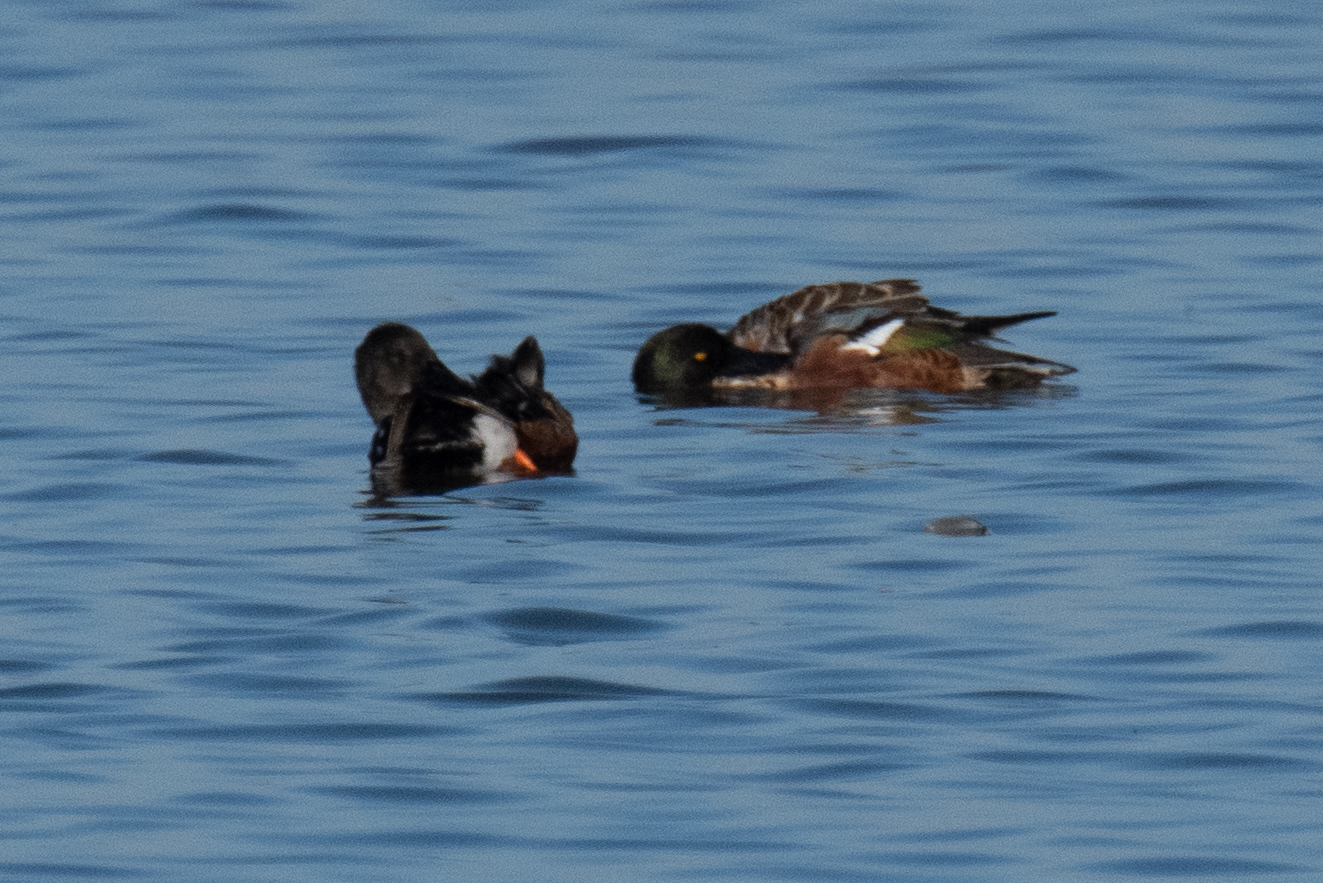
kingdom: Animalia
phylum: Chordata
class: Aves
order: Anseriformes
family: Anatidae
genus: Spatula
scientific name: Spatula clypeata
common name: Northern shoveler
